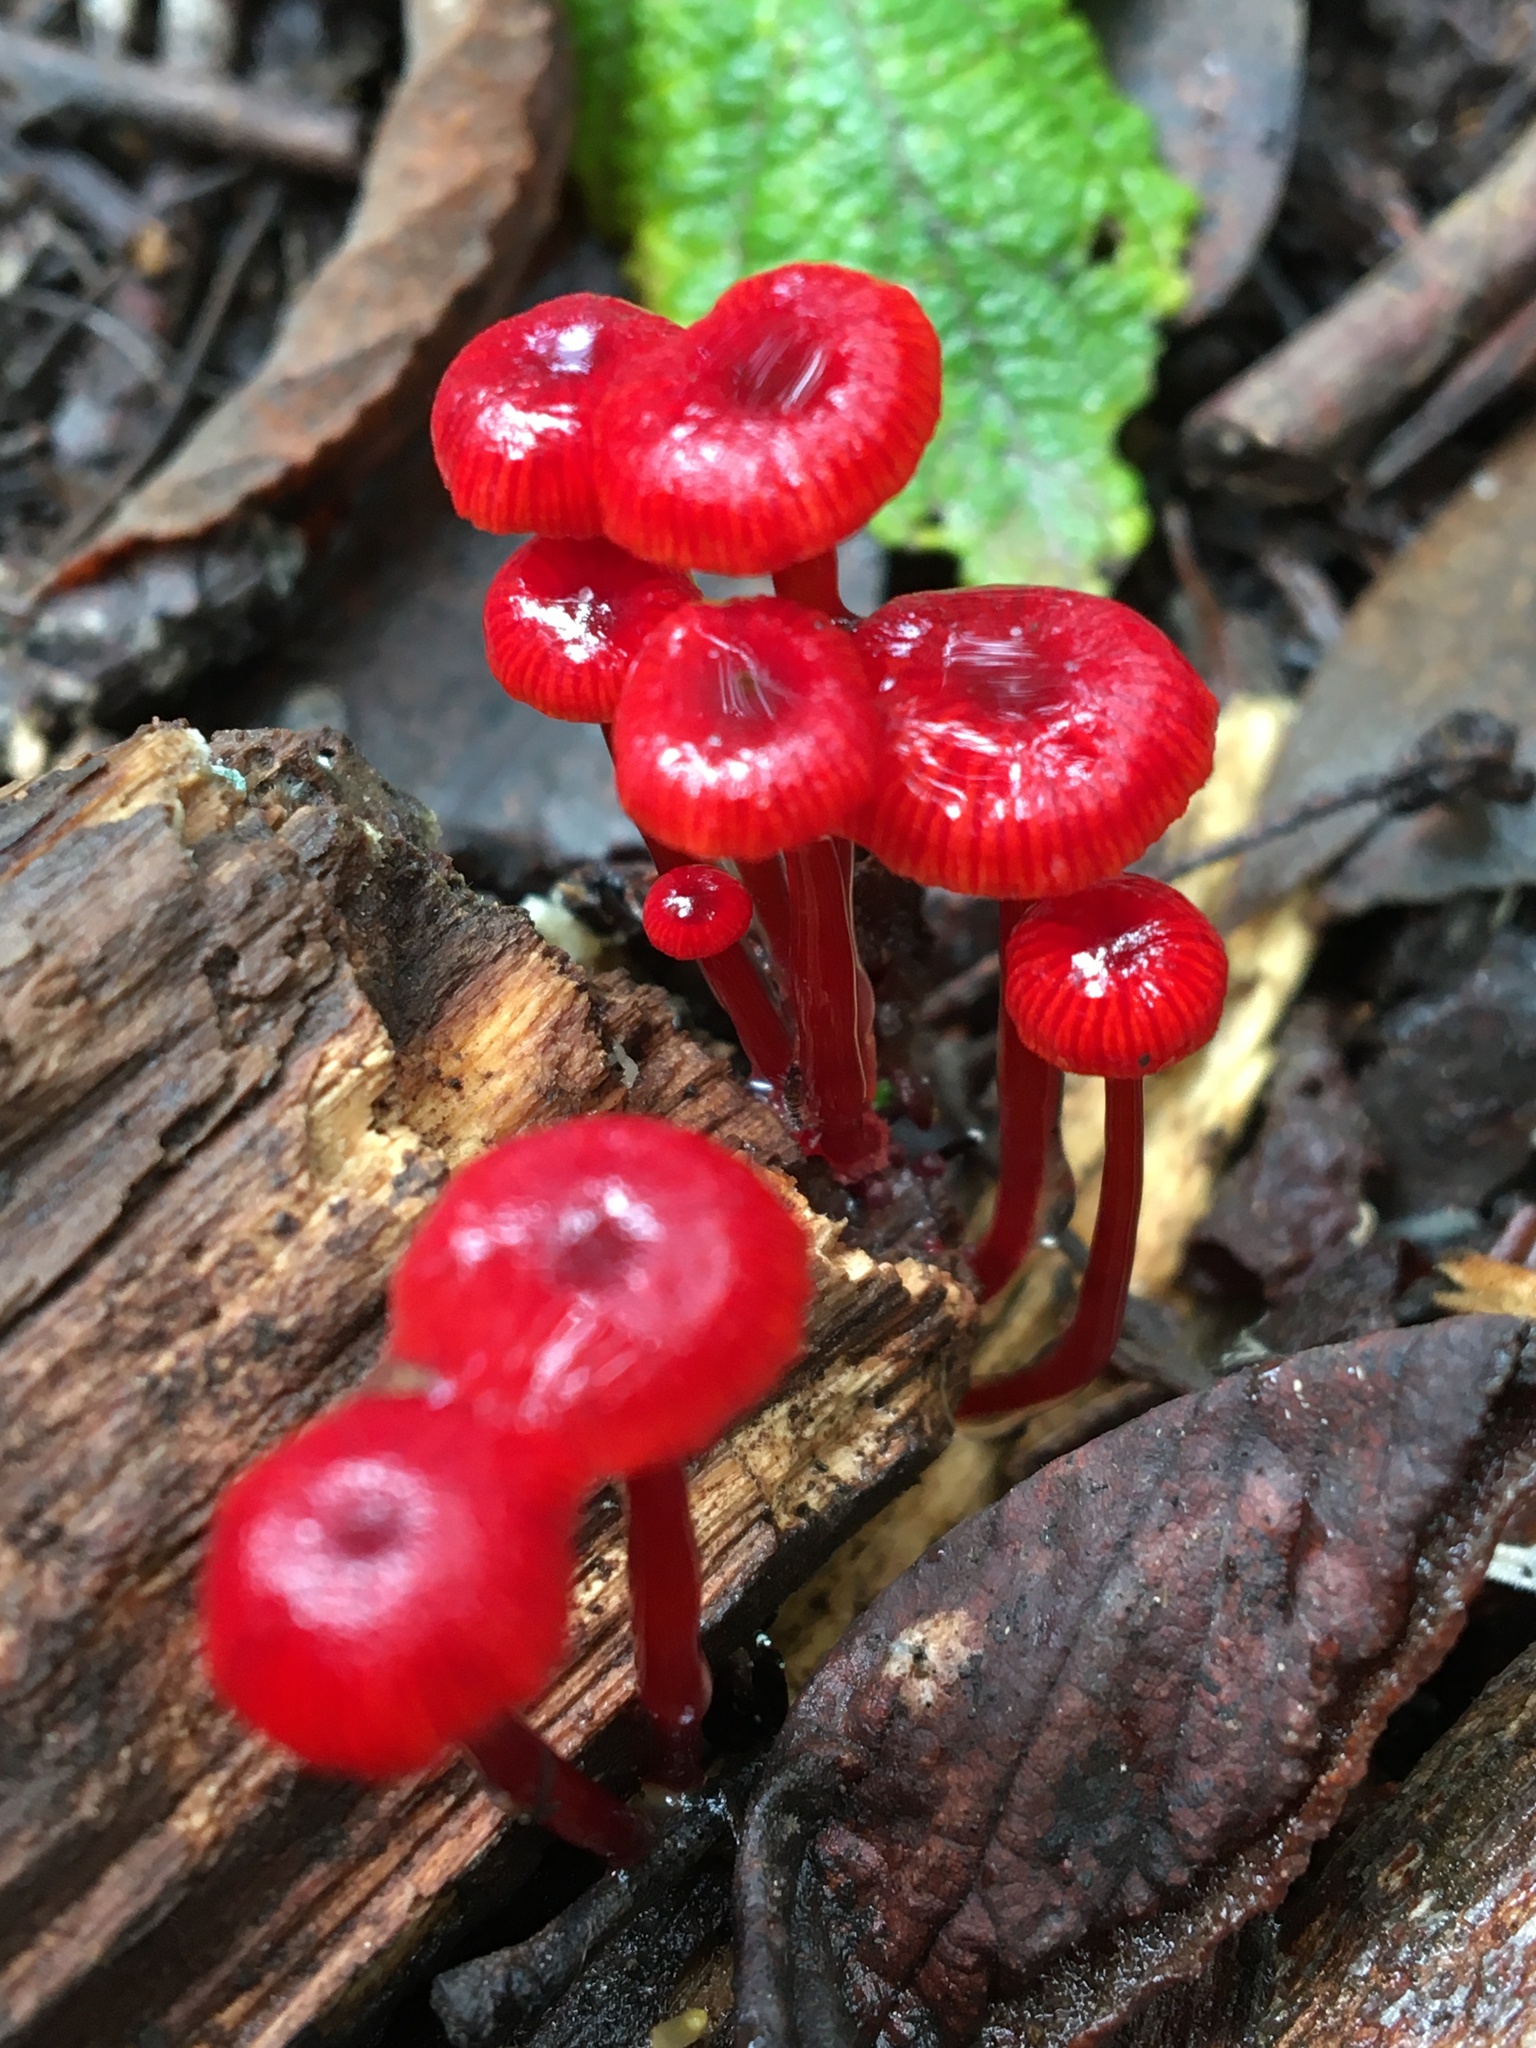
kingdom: Fungi
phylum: Basidiomycota
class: Agaricomycetes
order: Agaricales
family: Mycenaceae
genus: Cruentomycena
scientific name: Cruentomycena viscidocruenta
